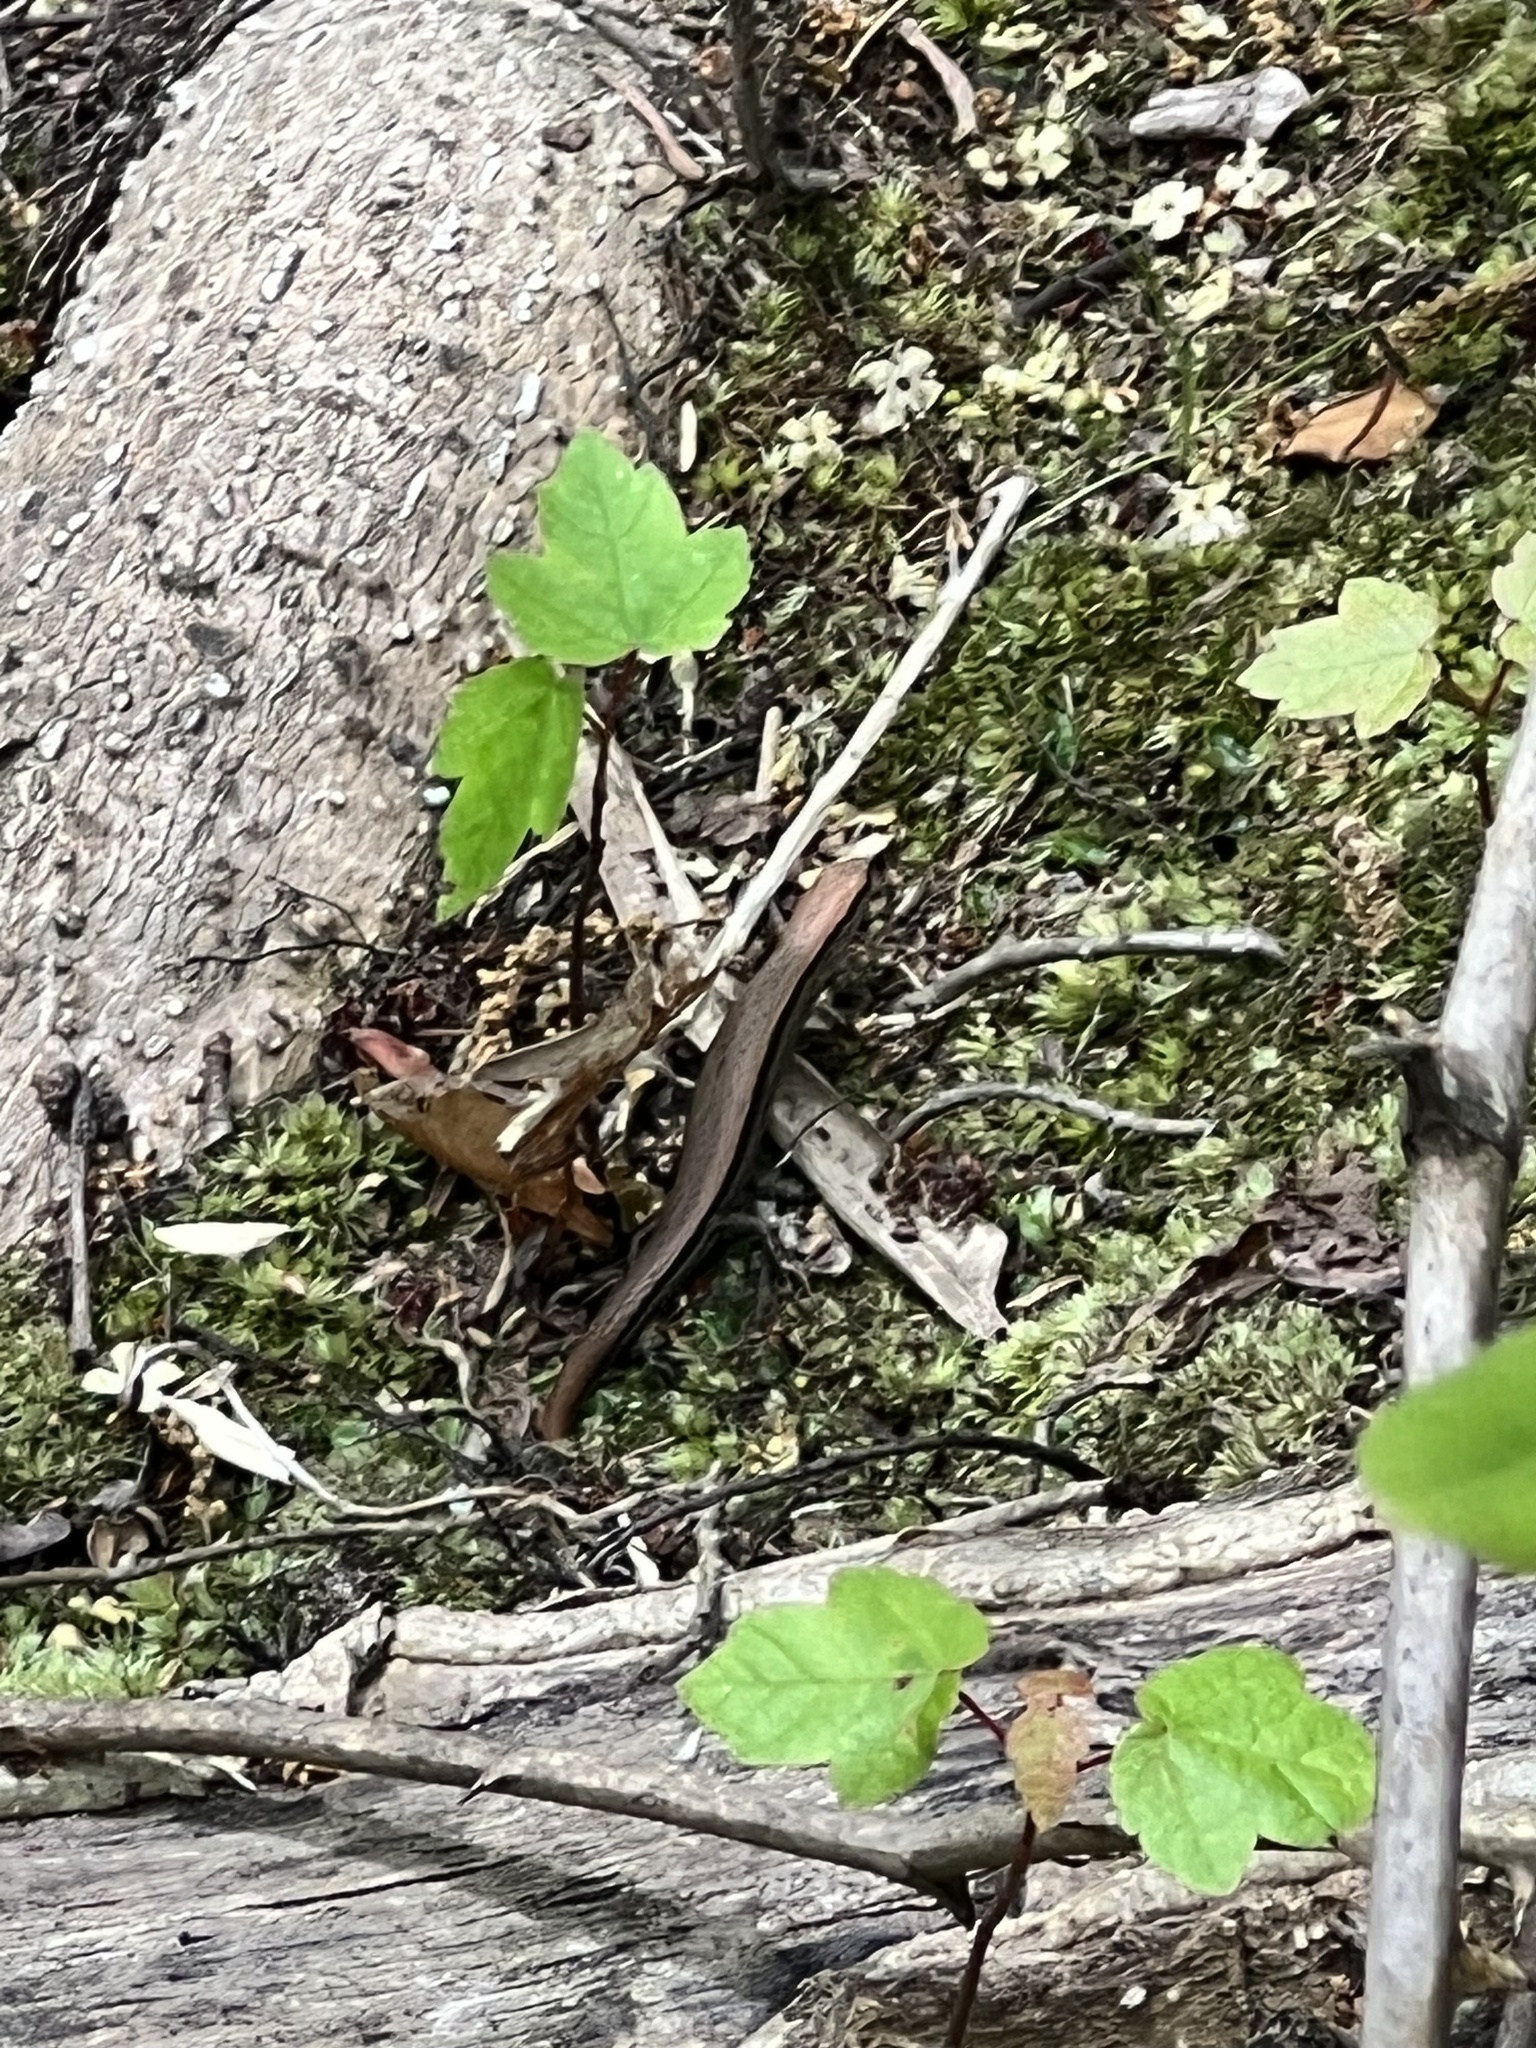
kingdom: Animalia
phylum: Chordata
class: Squamata
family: Scincidae
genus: Scincella
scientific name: Scincella lateralis
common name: Ground skink
